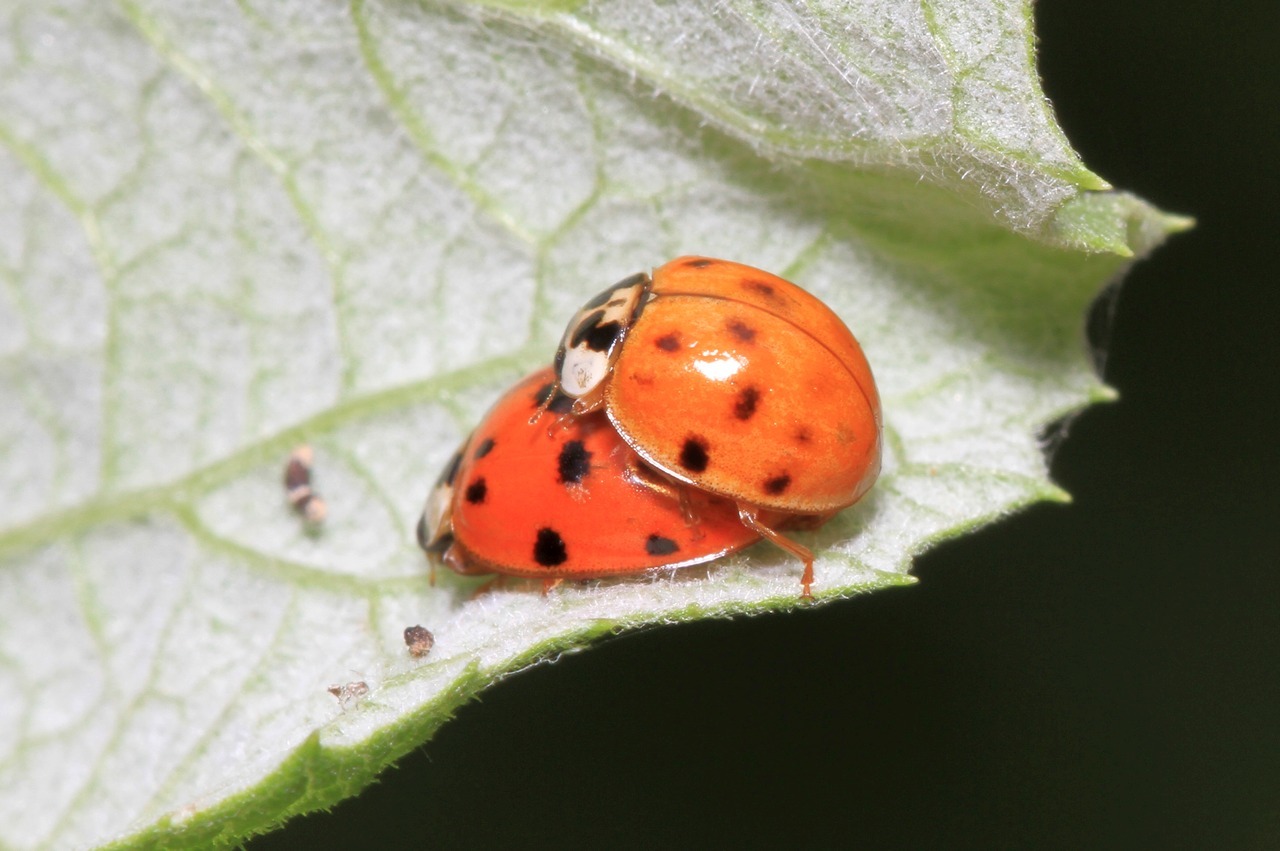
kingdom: Animalia
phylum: Arthropoda
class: Insecta
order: Coleoptera
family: Coccinellidae
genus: Harmonia
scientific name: Harmonia axyridis
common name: Harlequin ladybird
